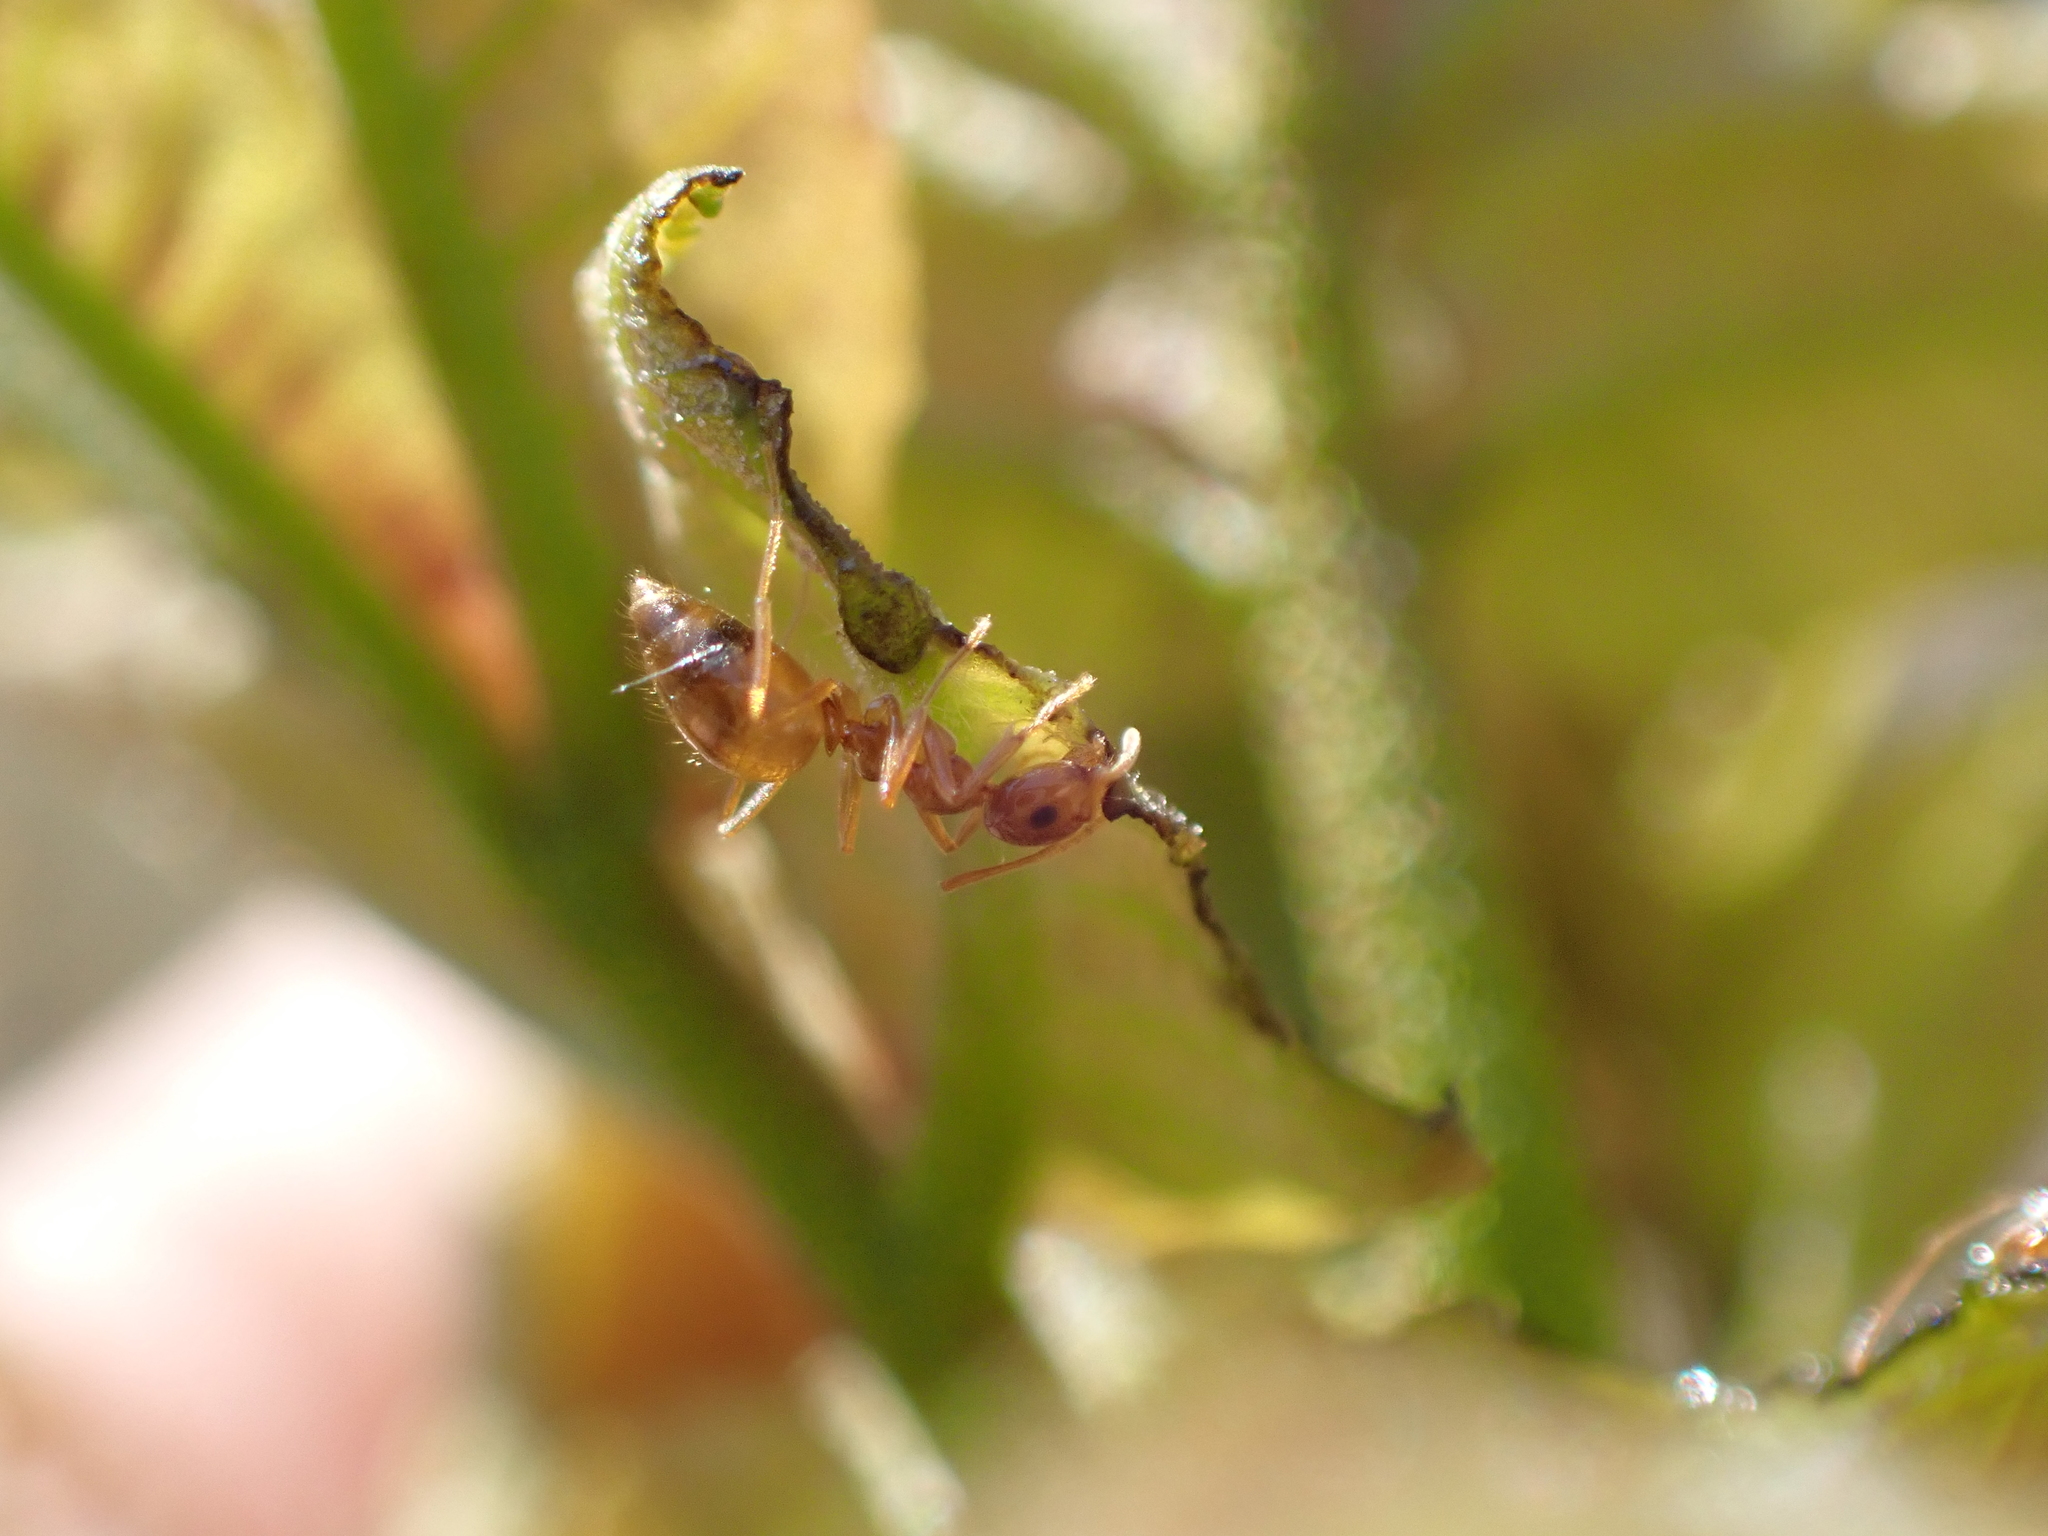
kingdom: Animalia
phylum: Arthropoda
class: Insecta
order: Hymenoptera
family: Formicidae
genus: Prenolepis
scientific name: Prenolepis imparis
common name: Small honey ant
